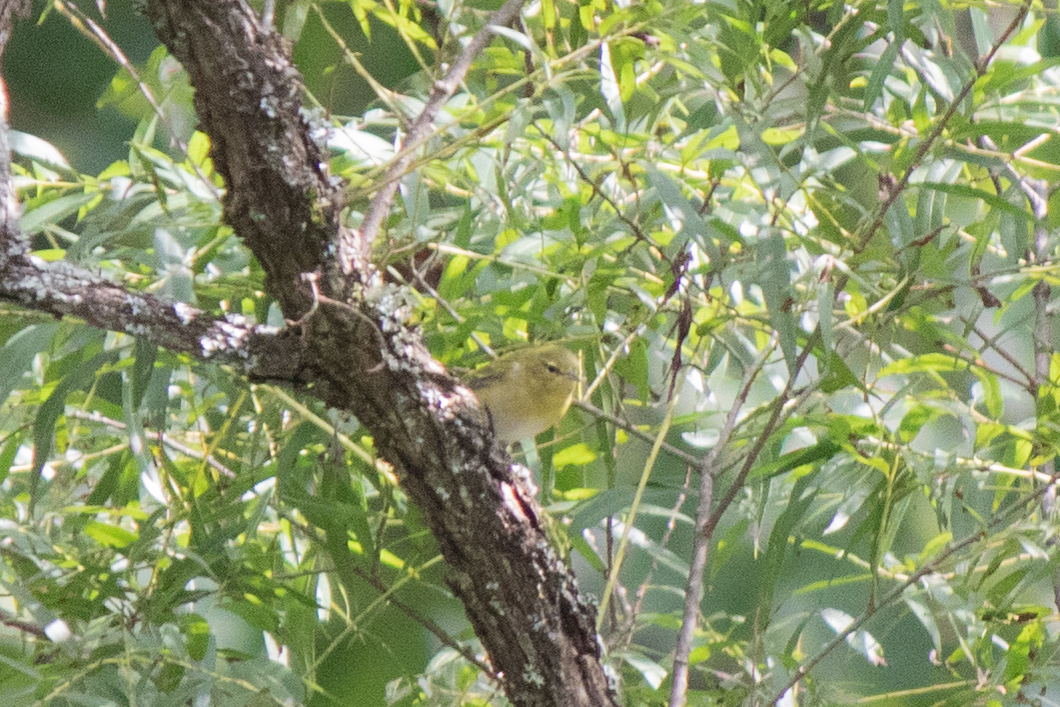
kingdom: Animalia
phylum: Chordata
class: Aves
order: Passeriformes
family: Parulidae
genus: Leiothlypis
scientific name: Leiothlypis peregrina
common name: Tennessee warbler
